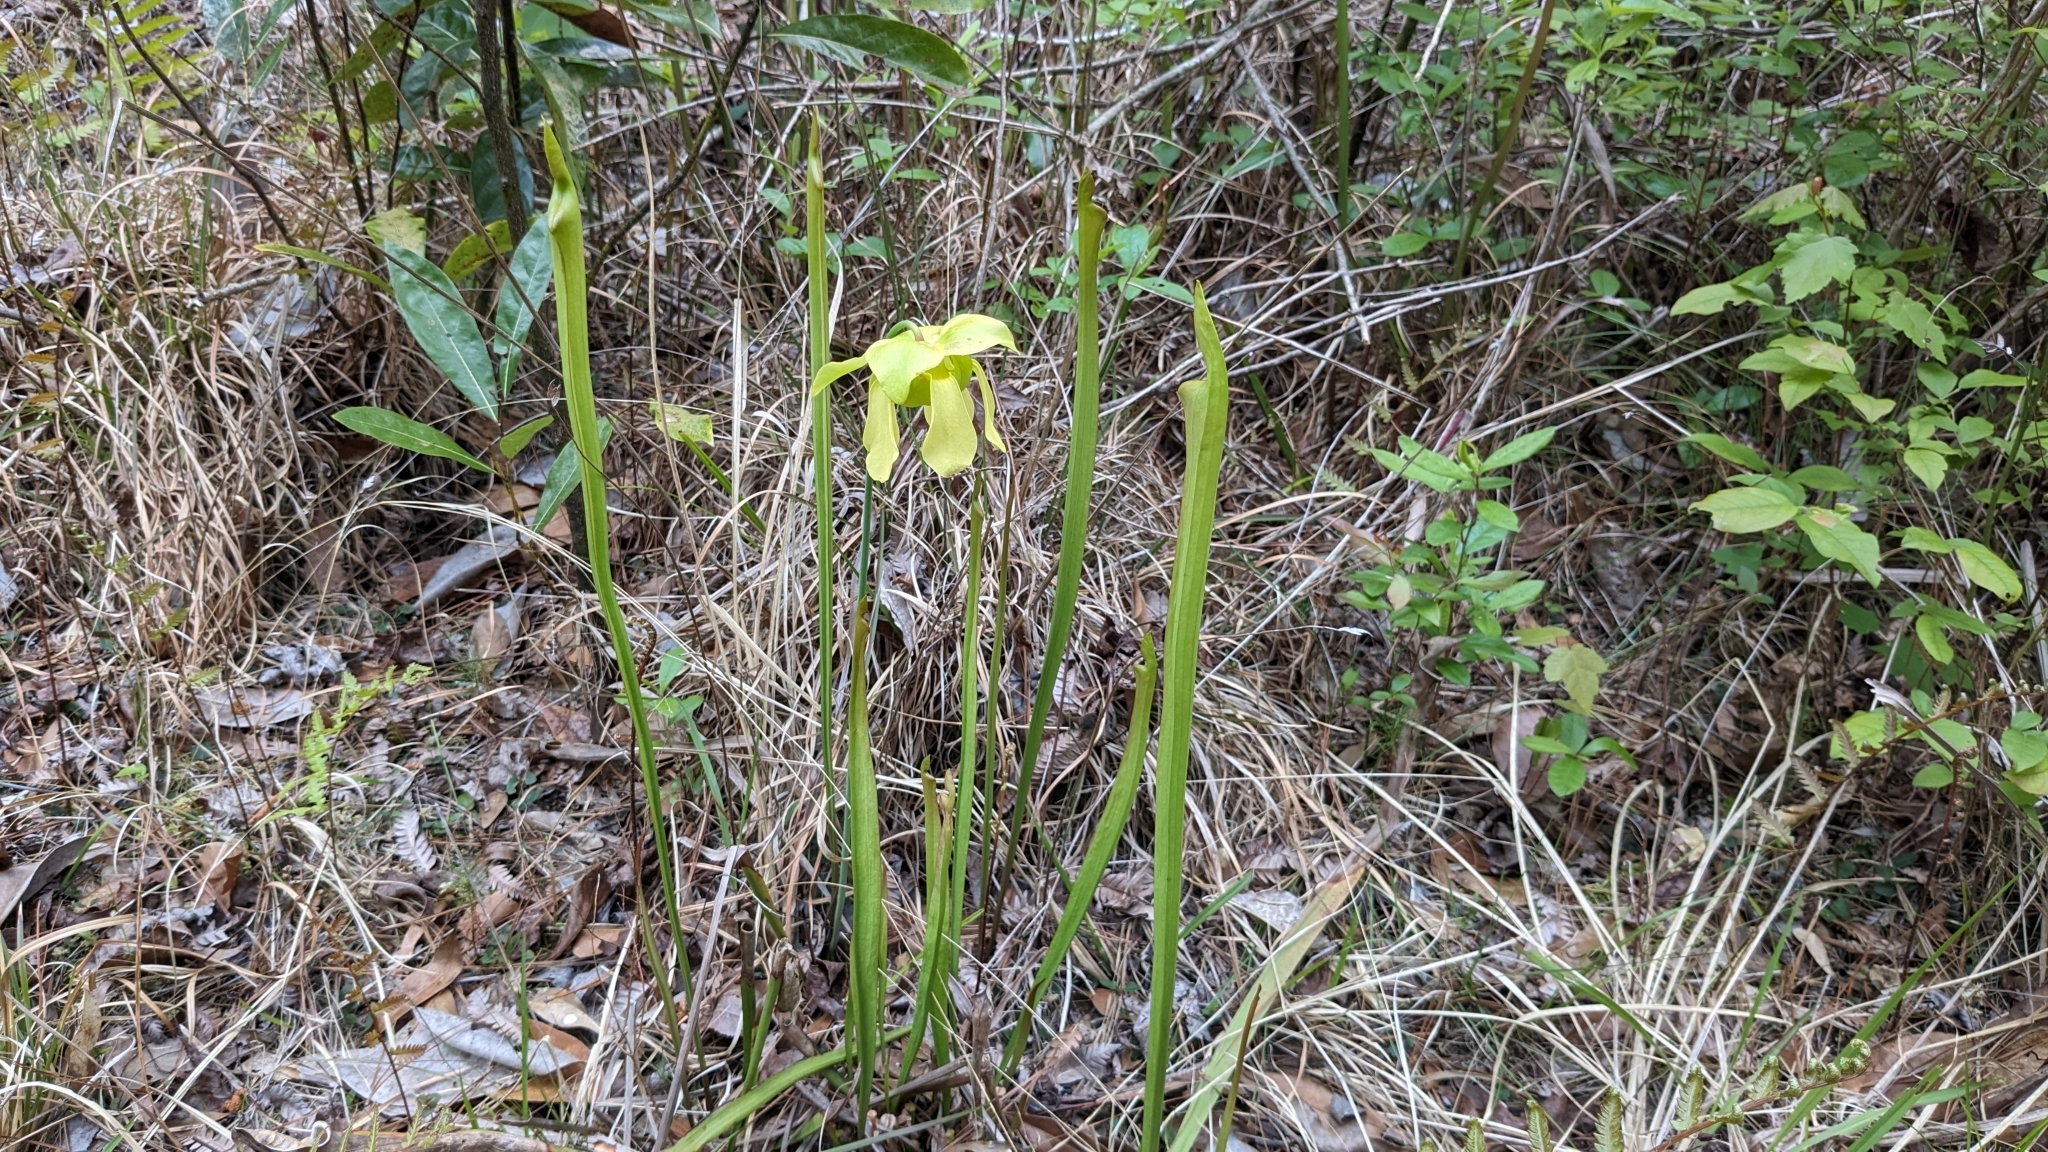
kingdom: Plantae
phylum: Tracheophyta
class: Magnoliopsida
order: Ericales
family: Sarraceniaceae
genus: Sarracenia
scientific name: Sarracenia alata
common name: Yellow trumpets
